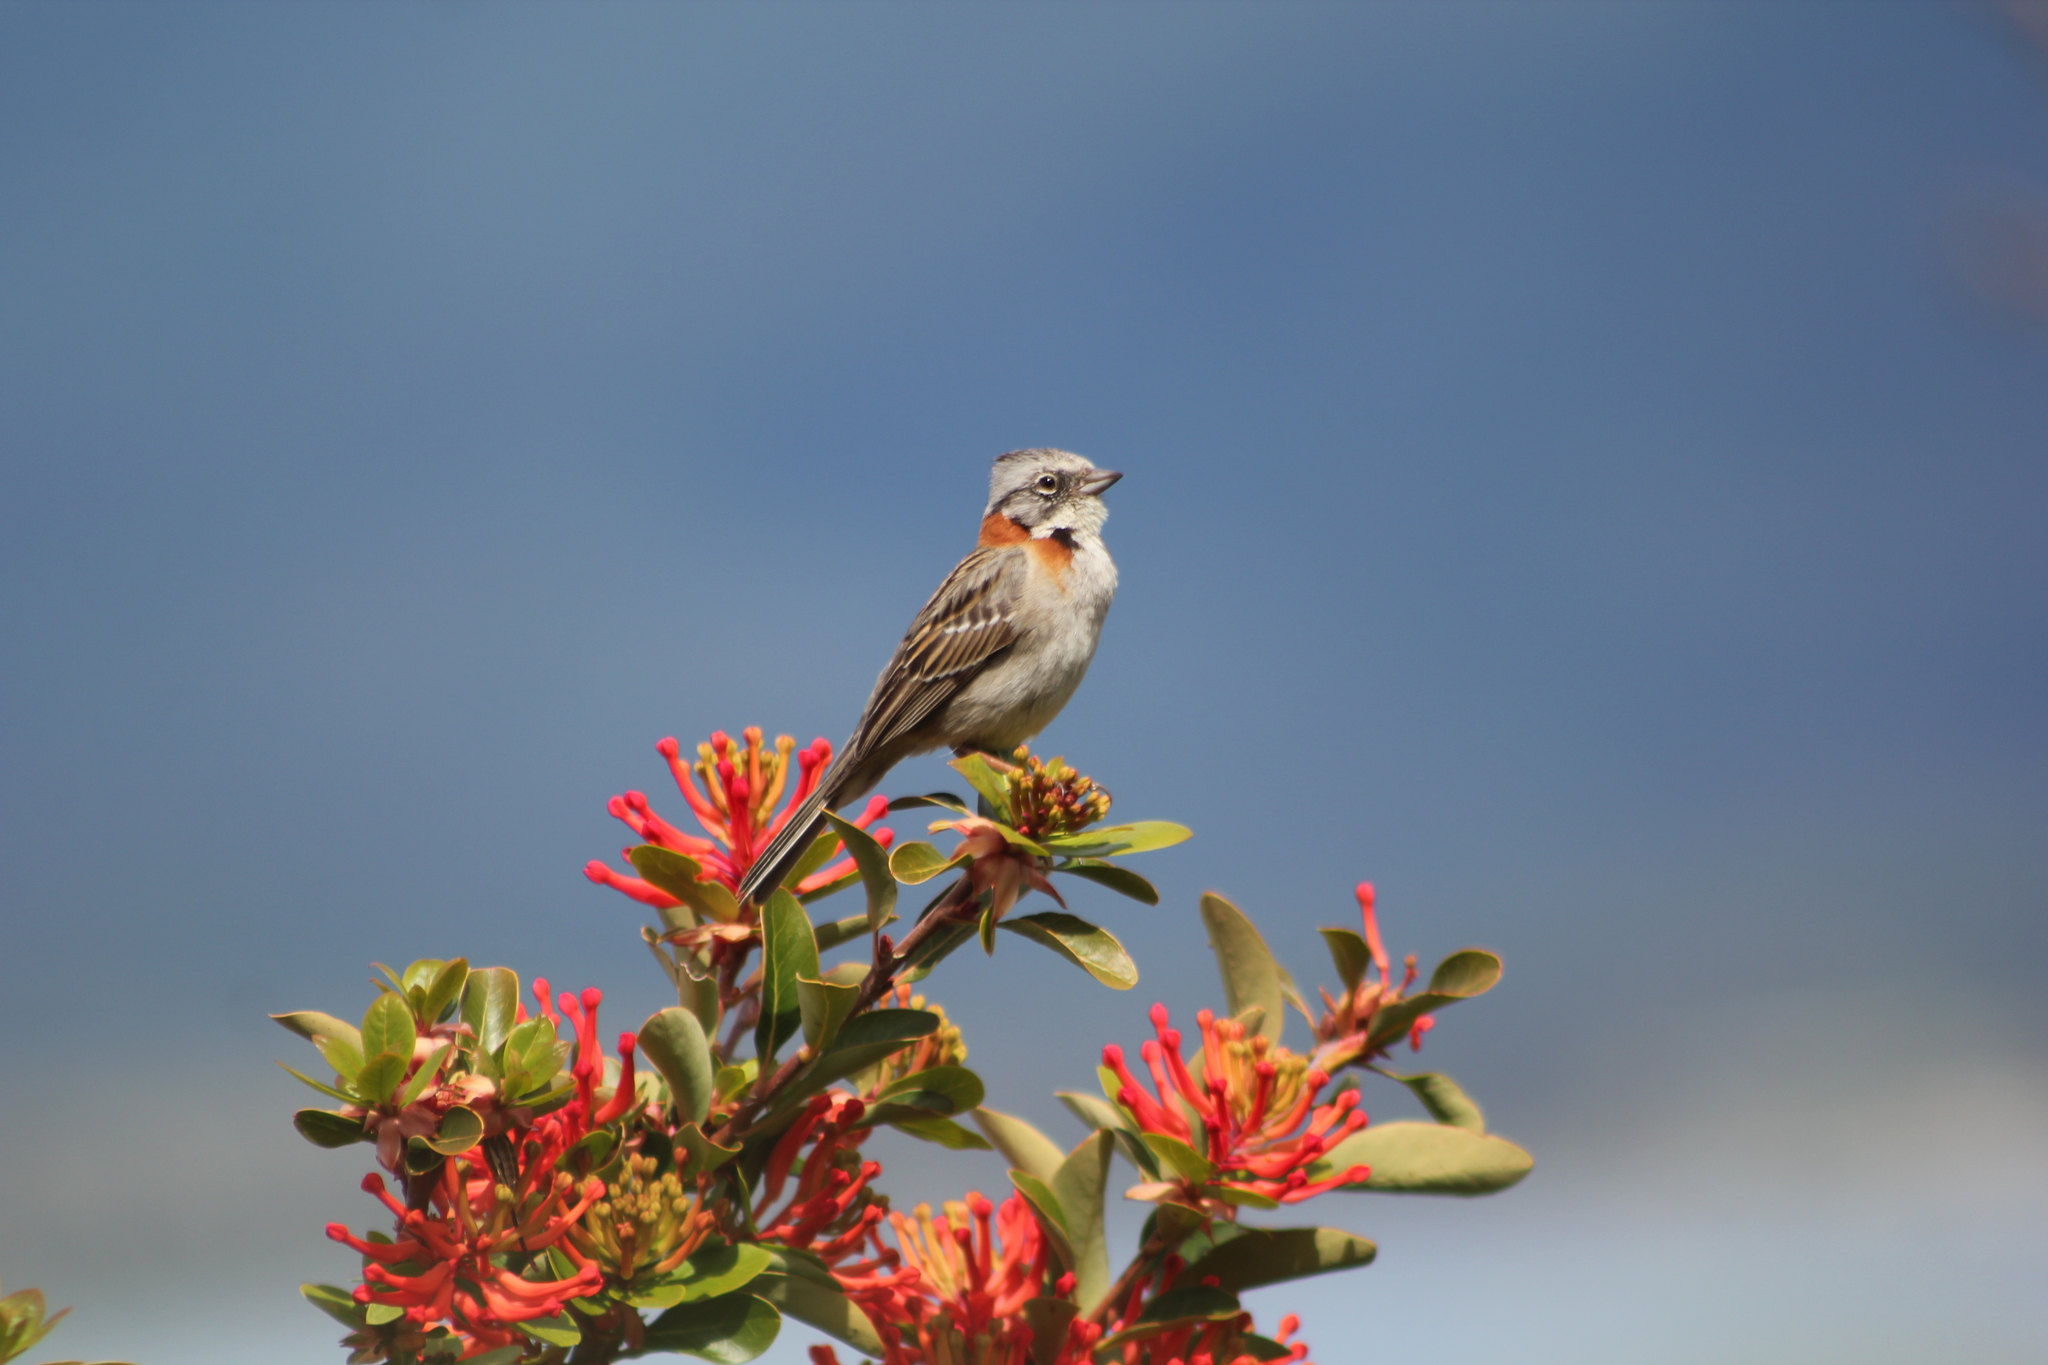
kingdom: Animalia
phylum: Chordata
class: Aves
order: Passeriformes
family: Passerellidae
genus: Zonotrichia
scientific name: Zonotrichia capensis
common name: Rufous-collared sparrow
